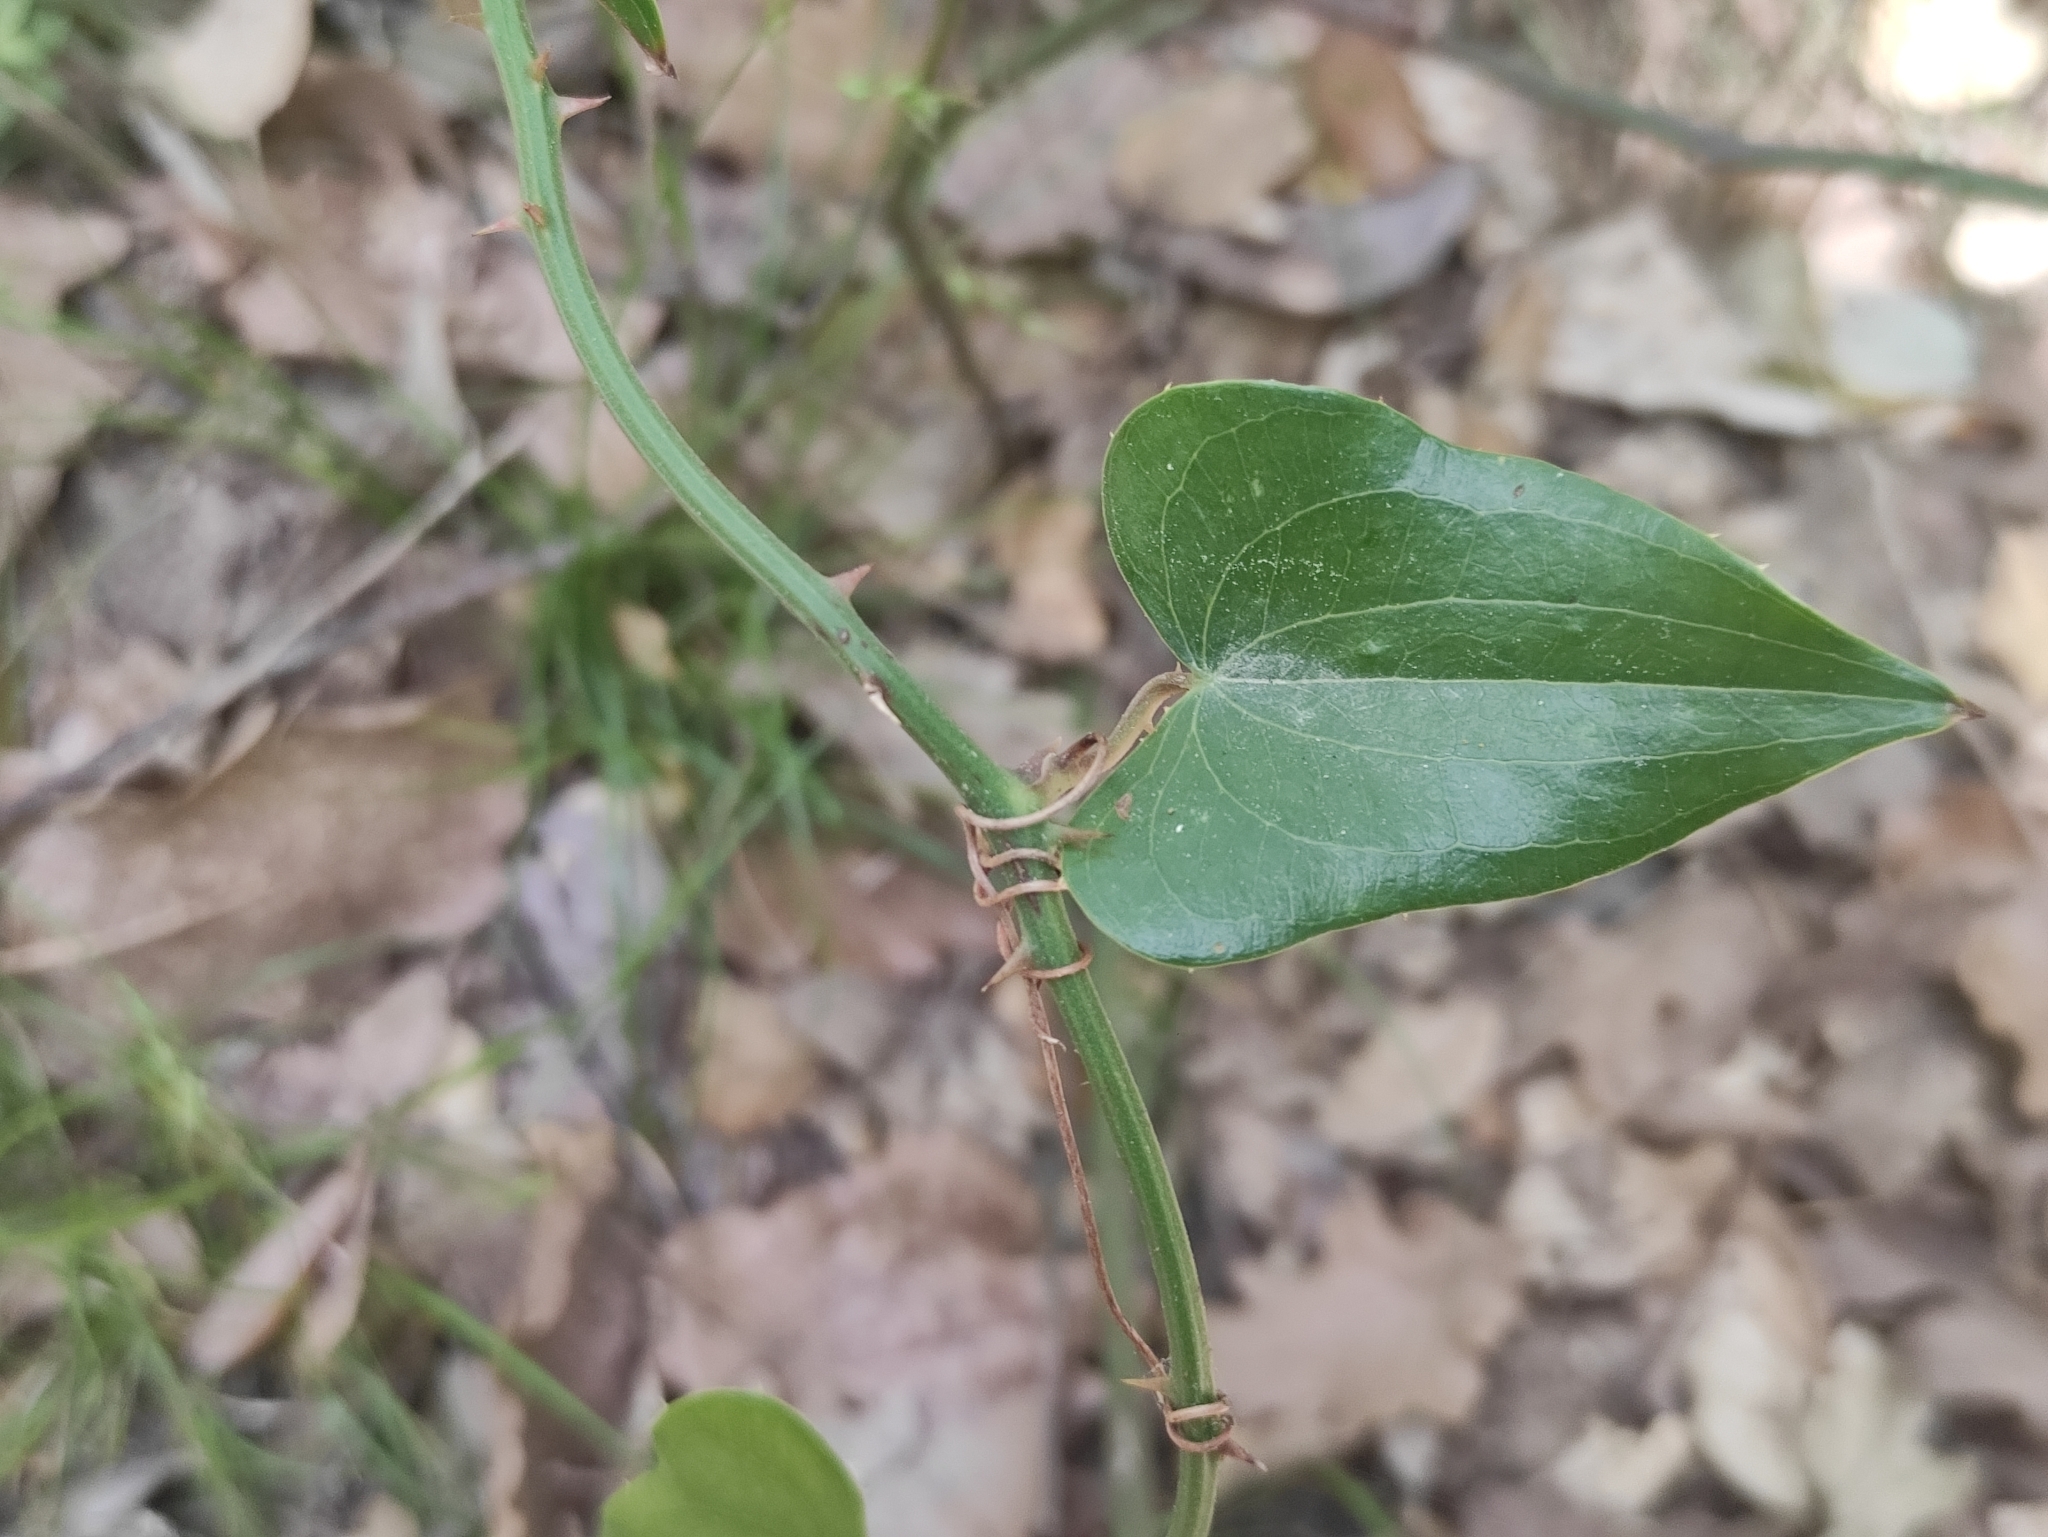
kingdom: Plantae
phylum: Tracheophyta
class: Liliopsida
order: Liliales
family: Smilacaceae
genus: Smilax
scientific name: Smilax aspera
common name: Common smilax
